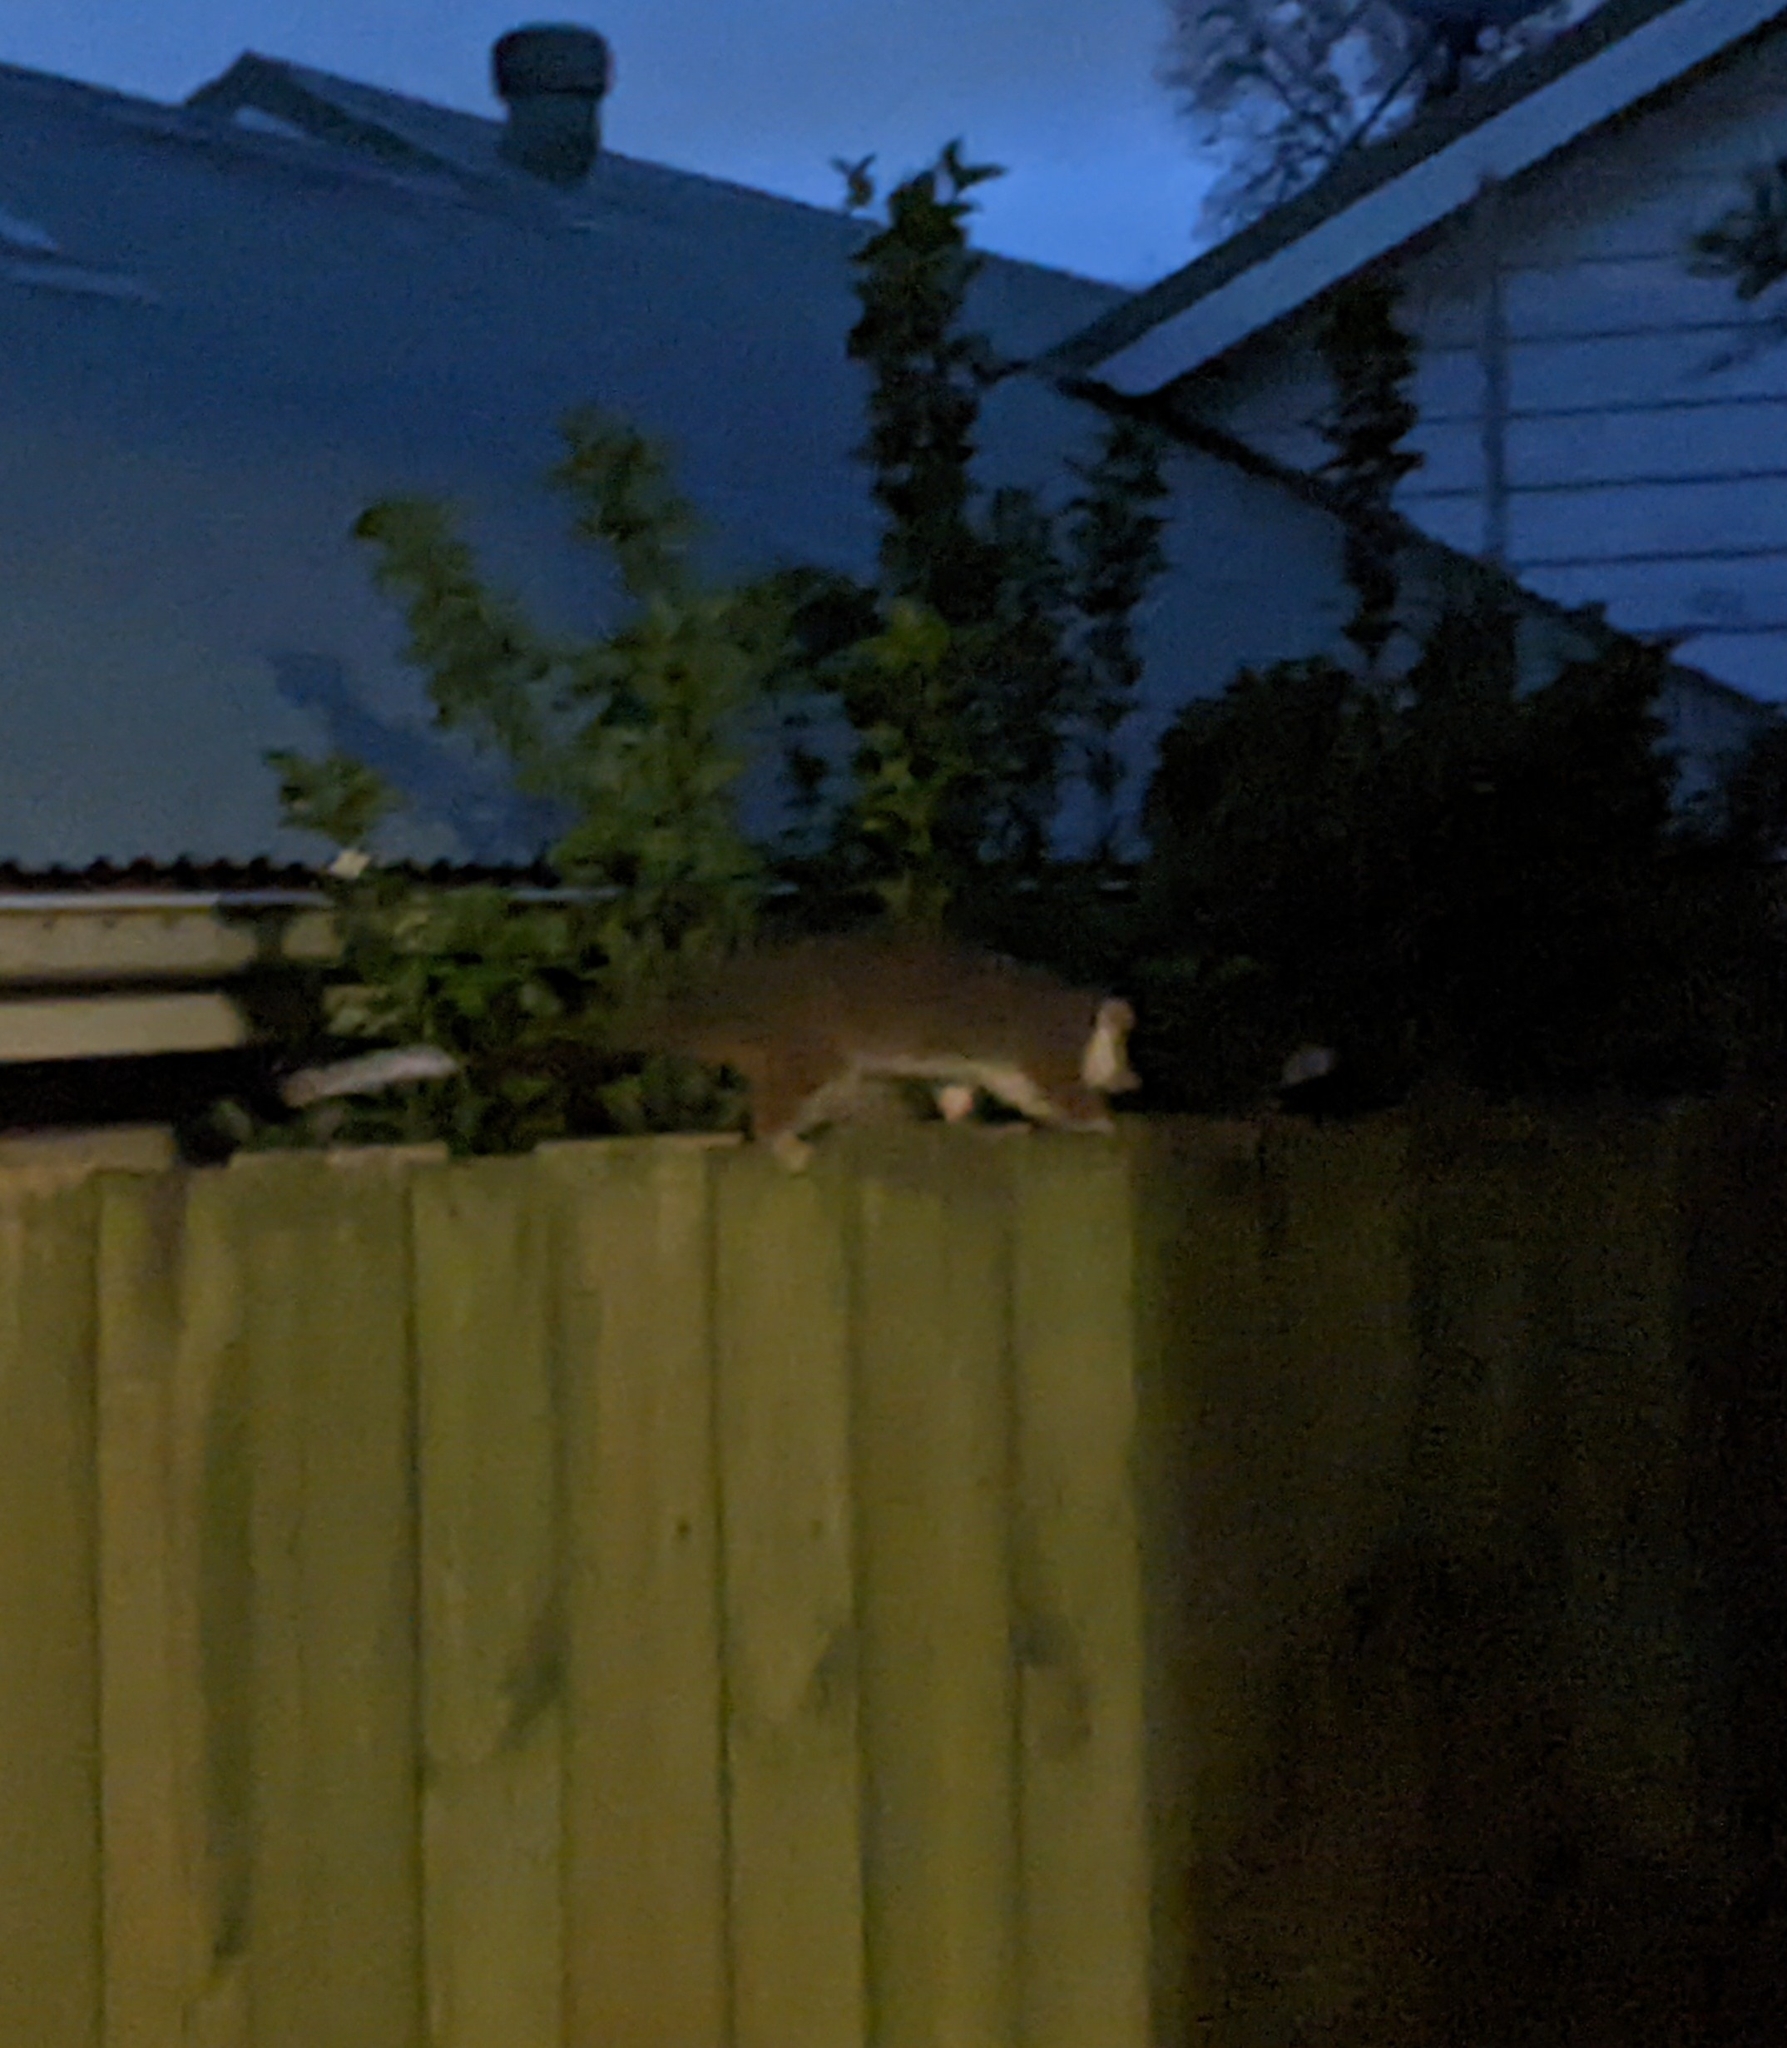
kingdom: Animalia
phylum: Chordata
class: Mammalia
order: Diprotodontia
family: Pseudocheiridae
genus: Pseudocheirus
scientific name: Pseudocheirus peregrinus
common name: Common ringtail possum
